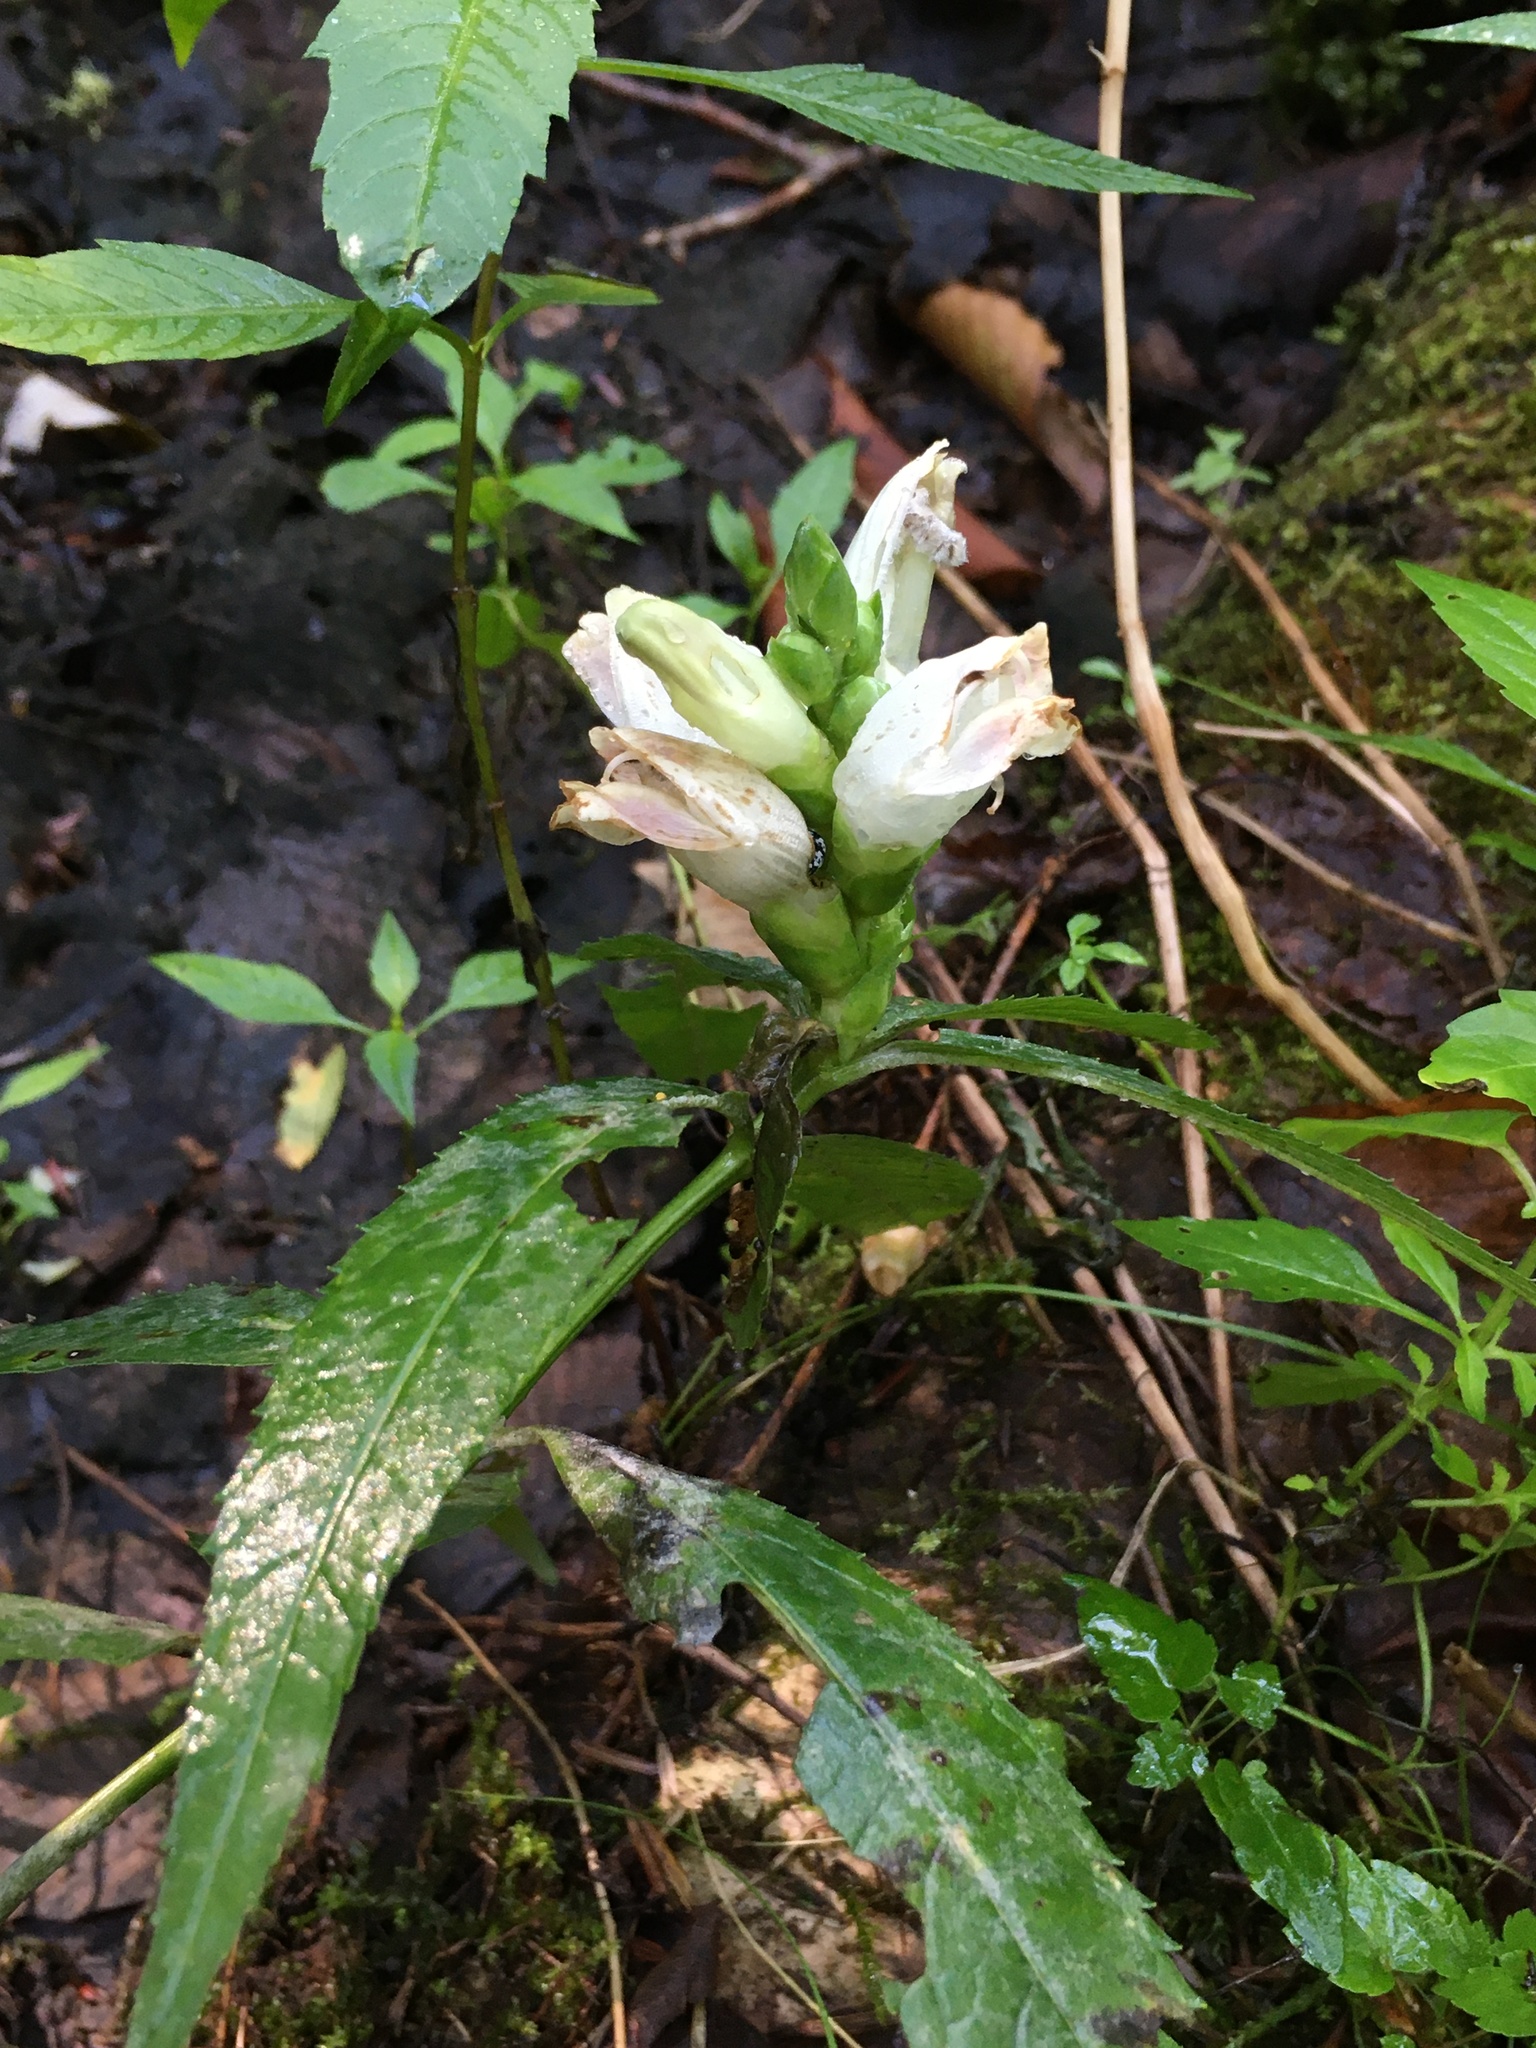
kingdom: Plantae
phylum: Tracheophyta
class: Magnoliopsida
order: Lamiales
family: Plantaginaceae
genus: Chelone
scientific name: Chelone glabra
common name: Snakehead
